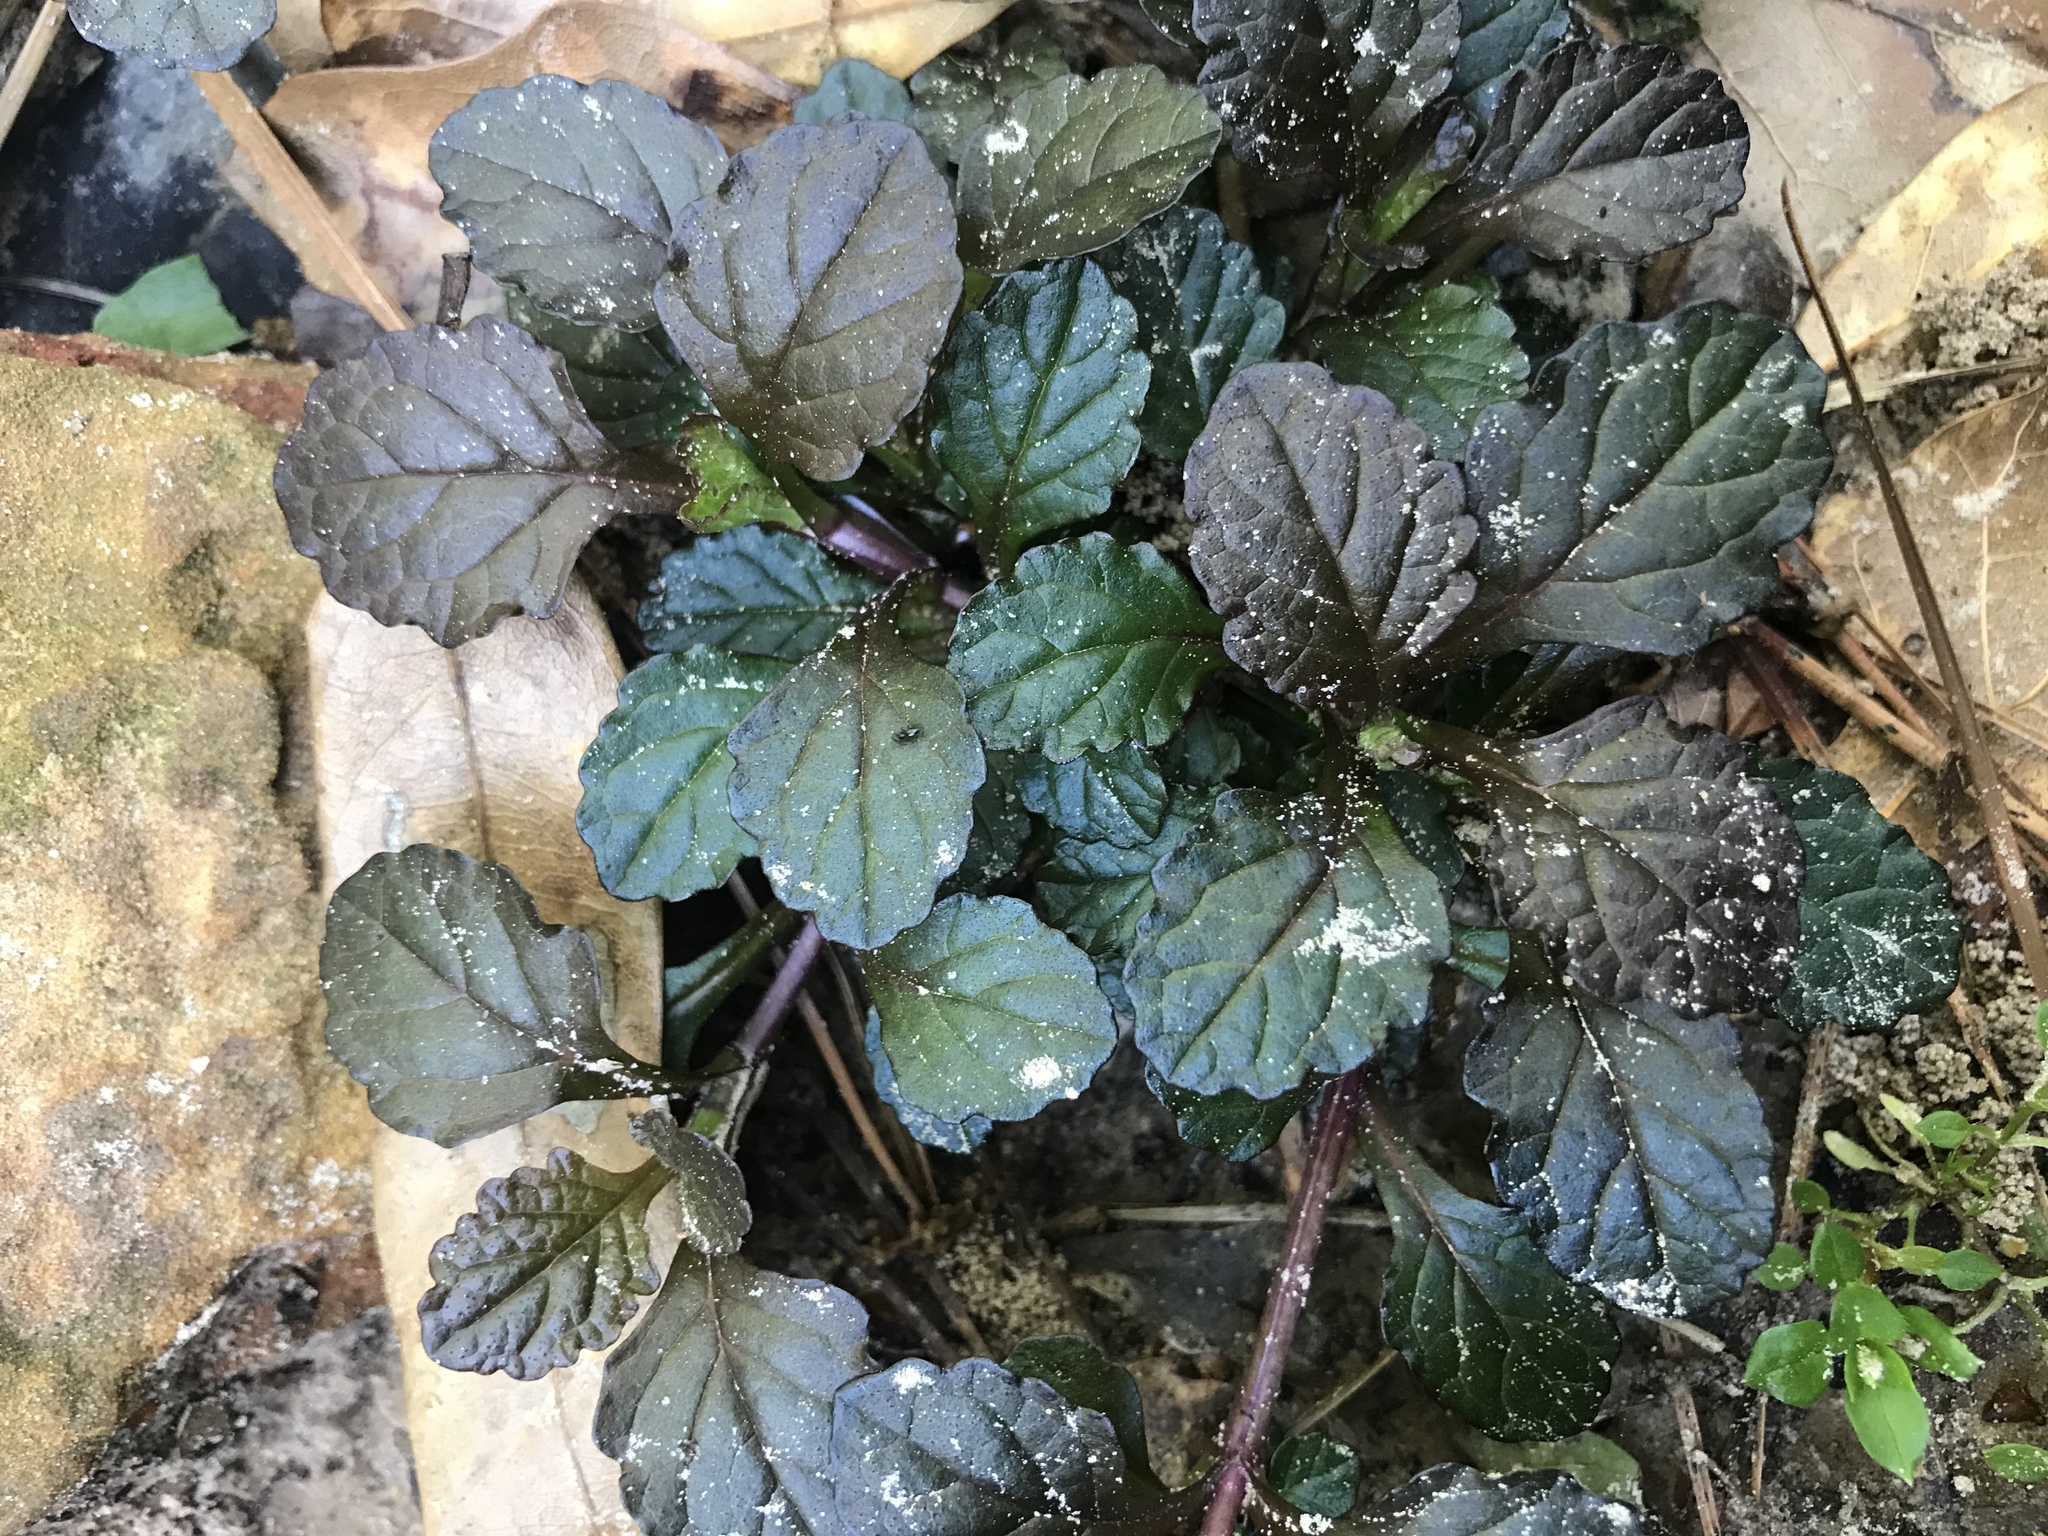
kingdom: Plantae
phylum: Tracheophyta
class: Magnoliopsida
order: Lamiales
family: Lamiaceae
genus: Ajuga
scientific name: Ajuga reptans
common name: Bugle
